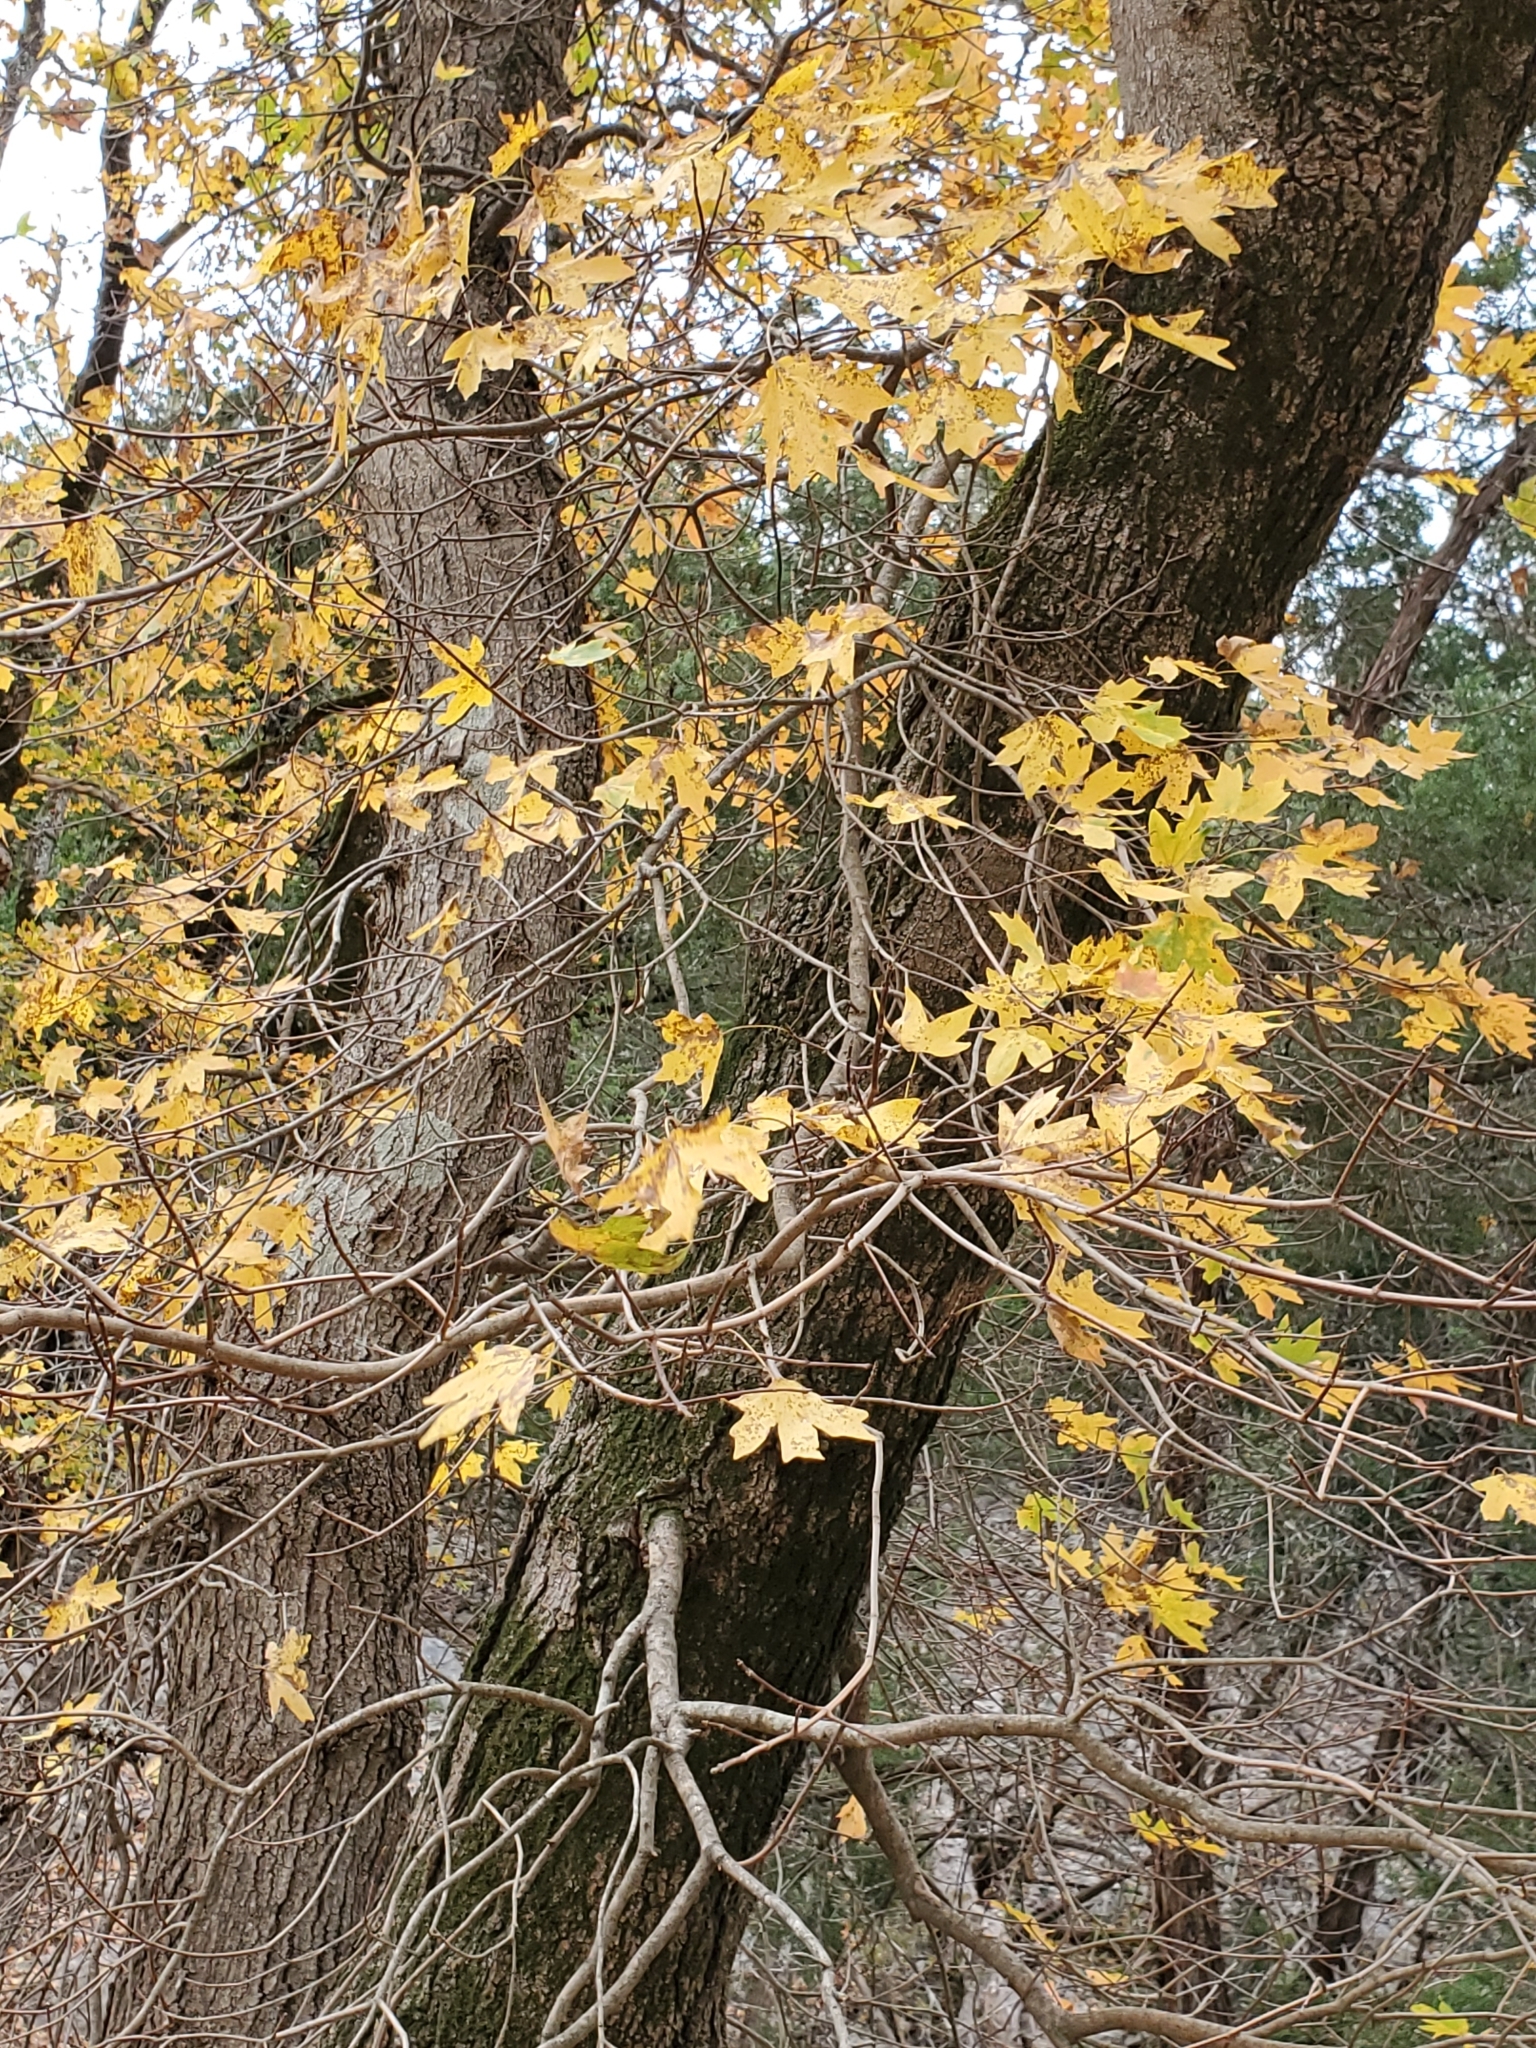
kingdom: Plantae
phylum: Tracheophyta
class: Magnoliopsida
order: Sapindales
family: Sapindaceae
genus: Acer
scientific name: Acer grandidentatum
